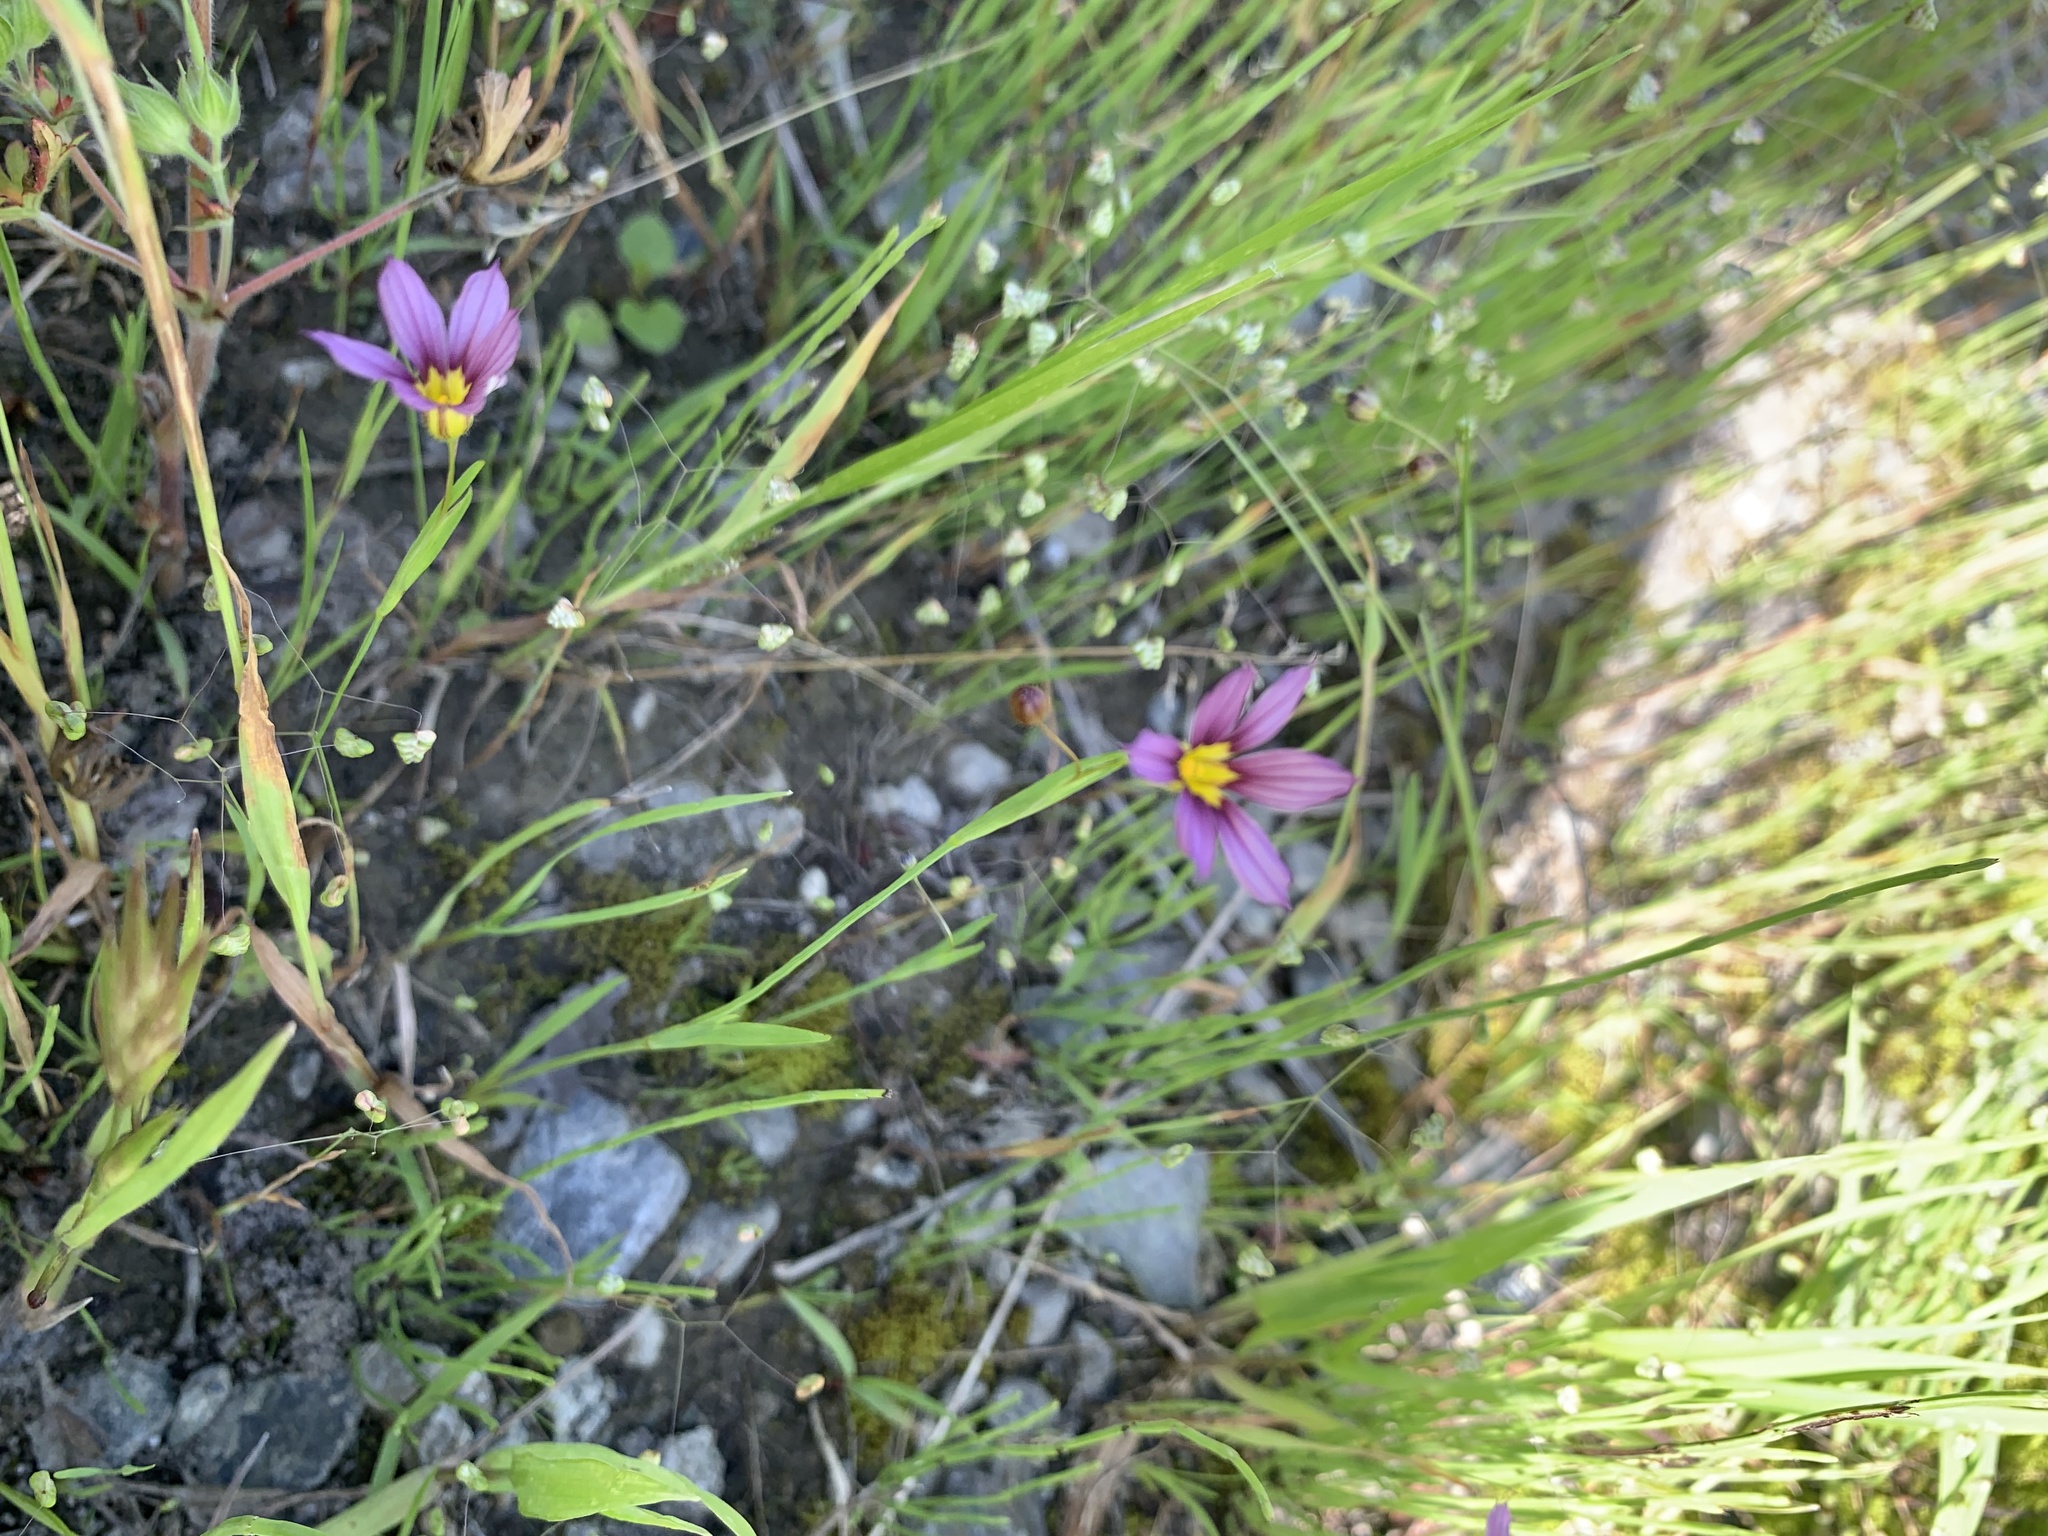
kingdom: Plantae
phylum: Tracheophyta
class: Liliopsida
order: Asparagales
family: Iridaceae
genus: Sisyrinchium
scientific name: Sisyrinchium micranthum
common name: Bermuda pigroot
